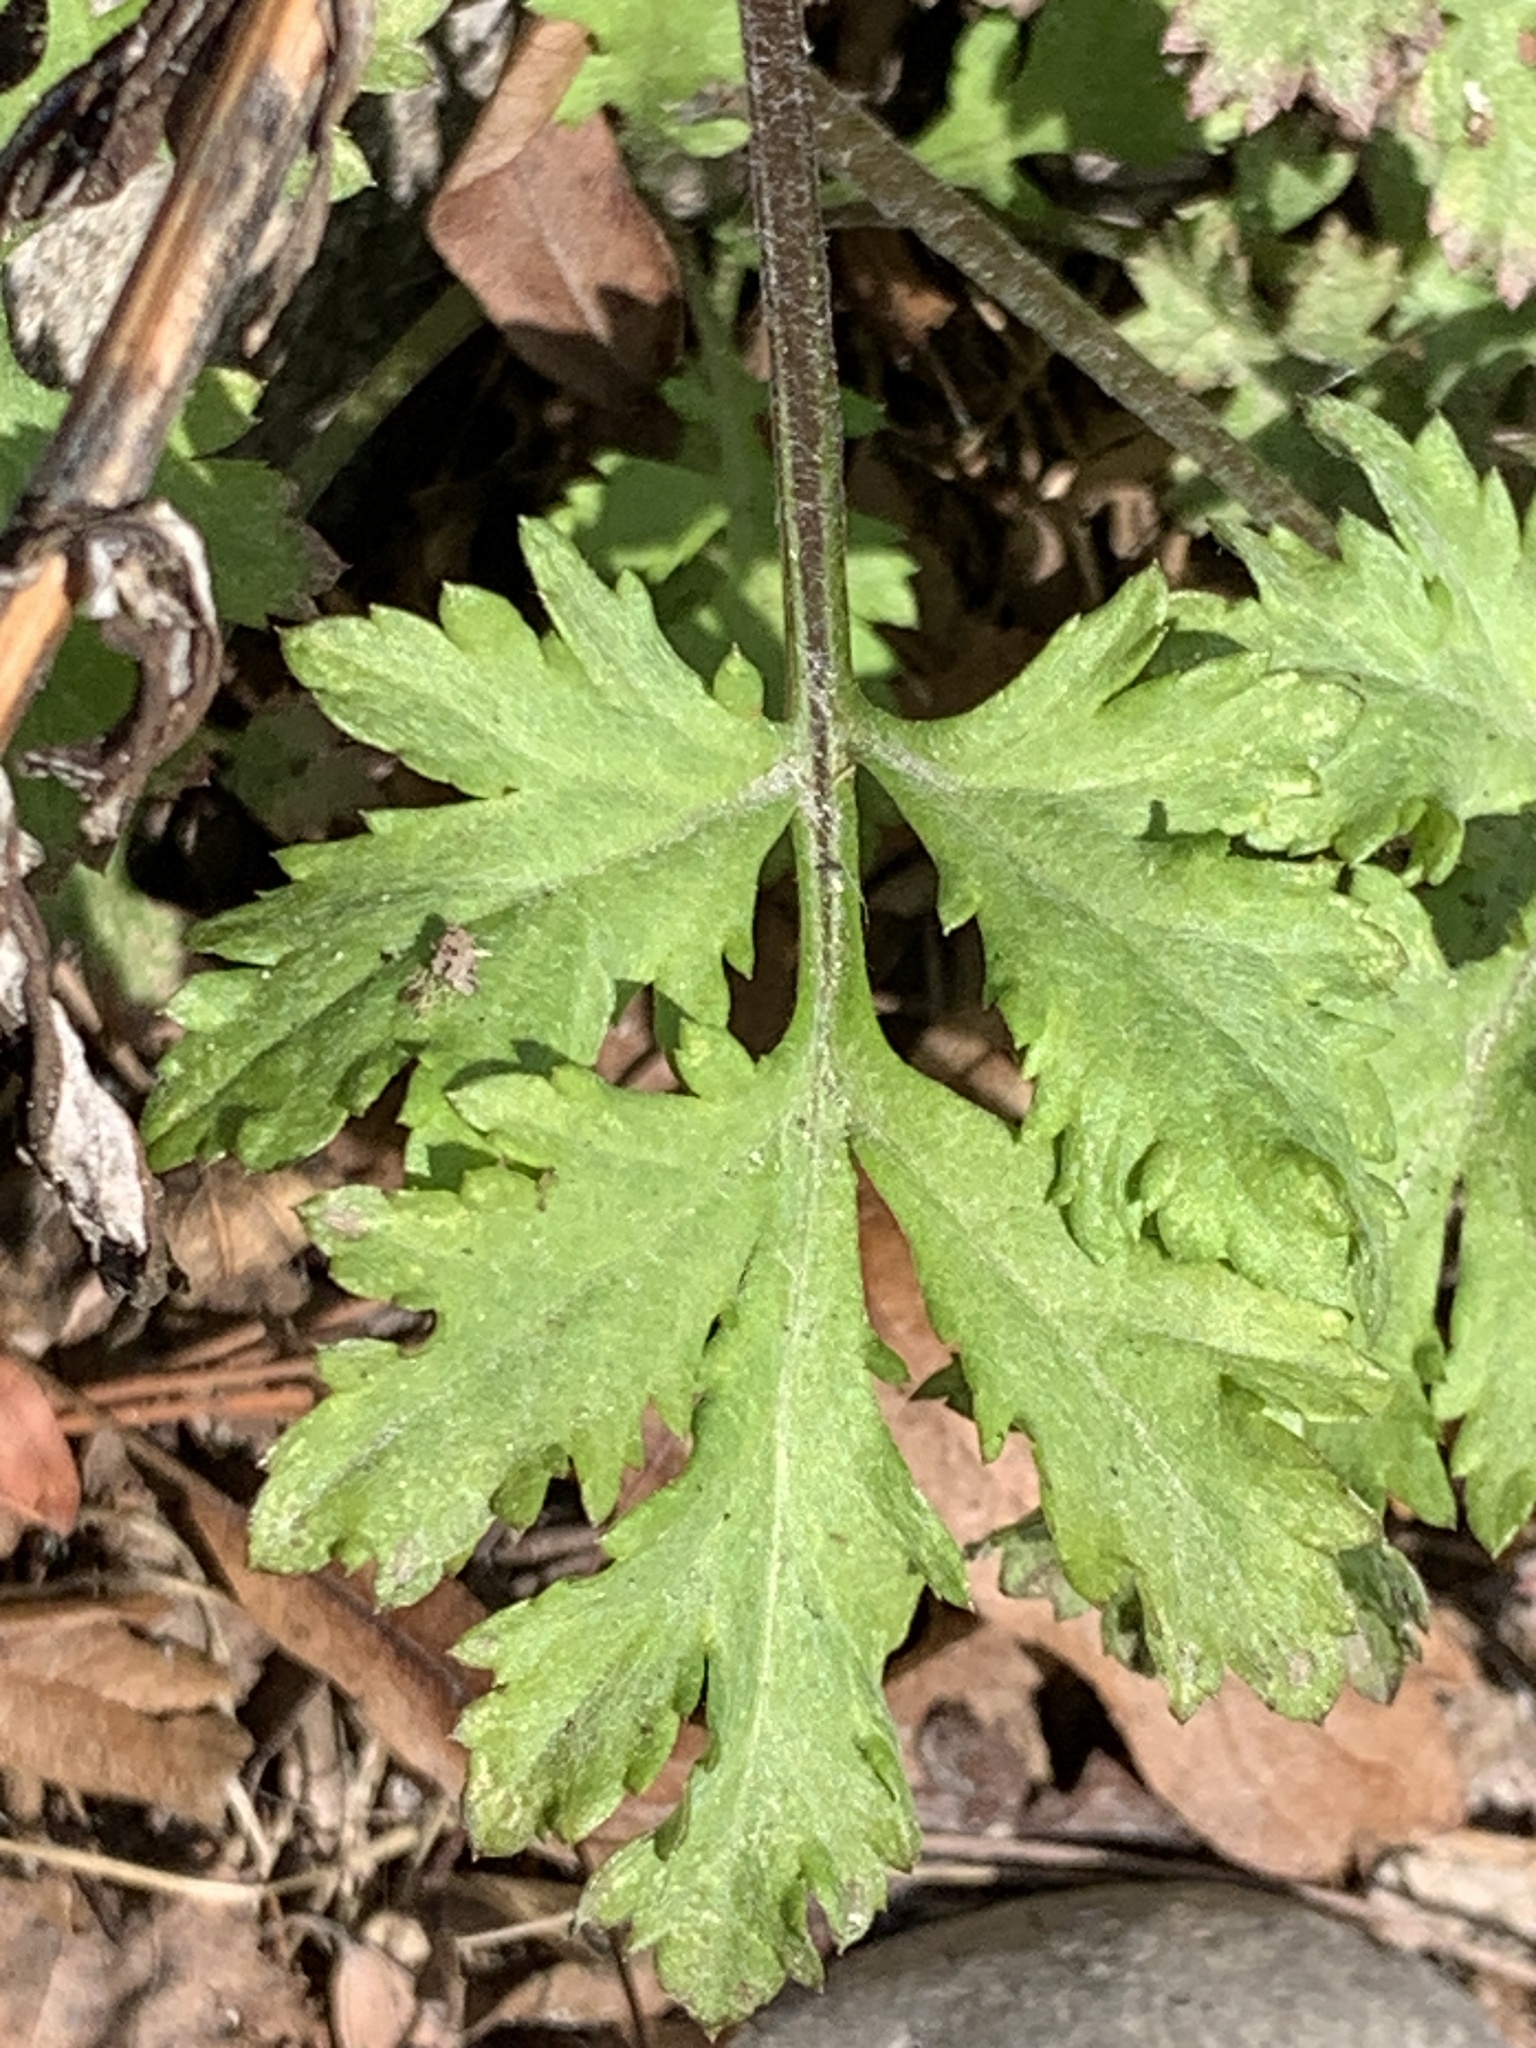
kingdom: Plantae
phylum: Tracheophyta
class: Magnoliopsida
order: Asterales
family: Asteraceae
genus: Artemisia
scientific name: Artemisia vulgaris
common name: Mugwort
